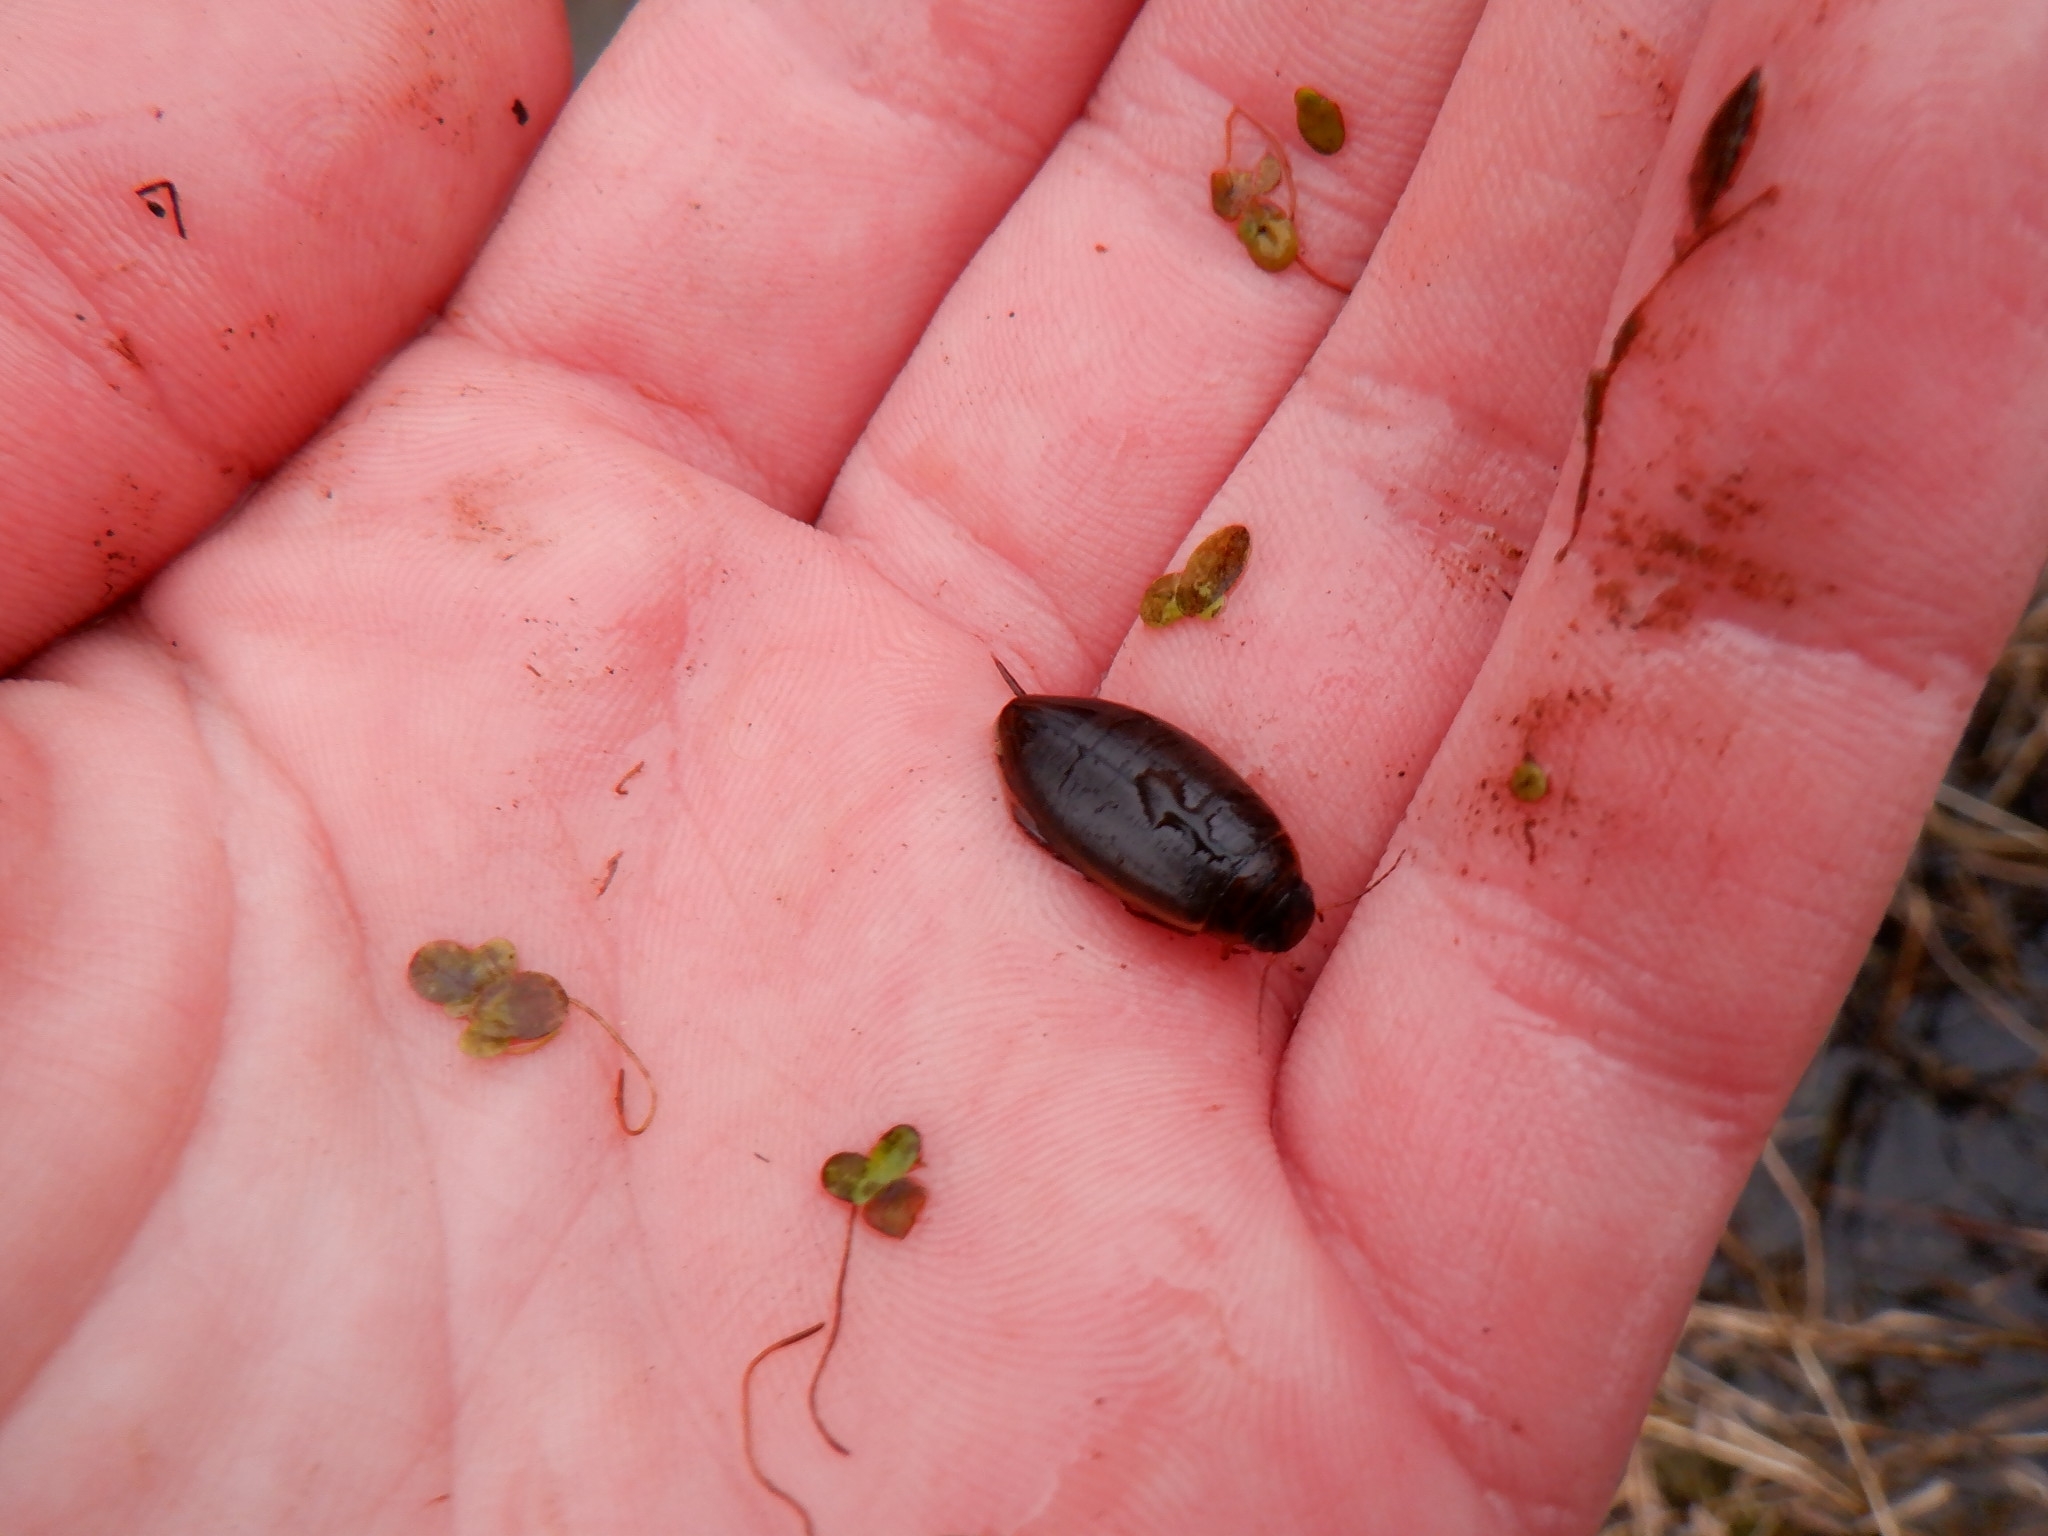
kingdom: Animalia
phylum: Arthropoda
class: Insecta
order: Coleoptera
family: Dytiscidae
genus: Colymbetes
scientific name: Colymbetes
